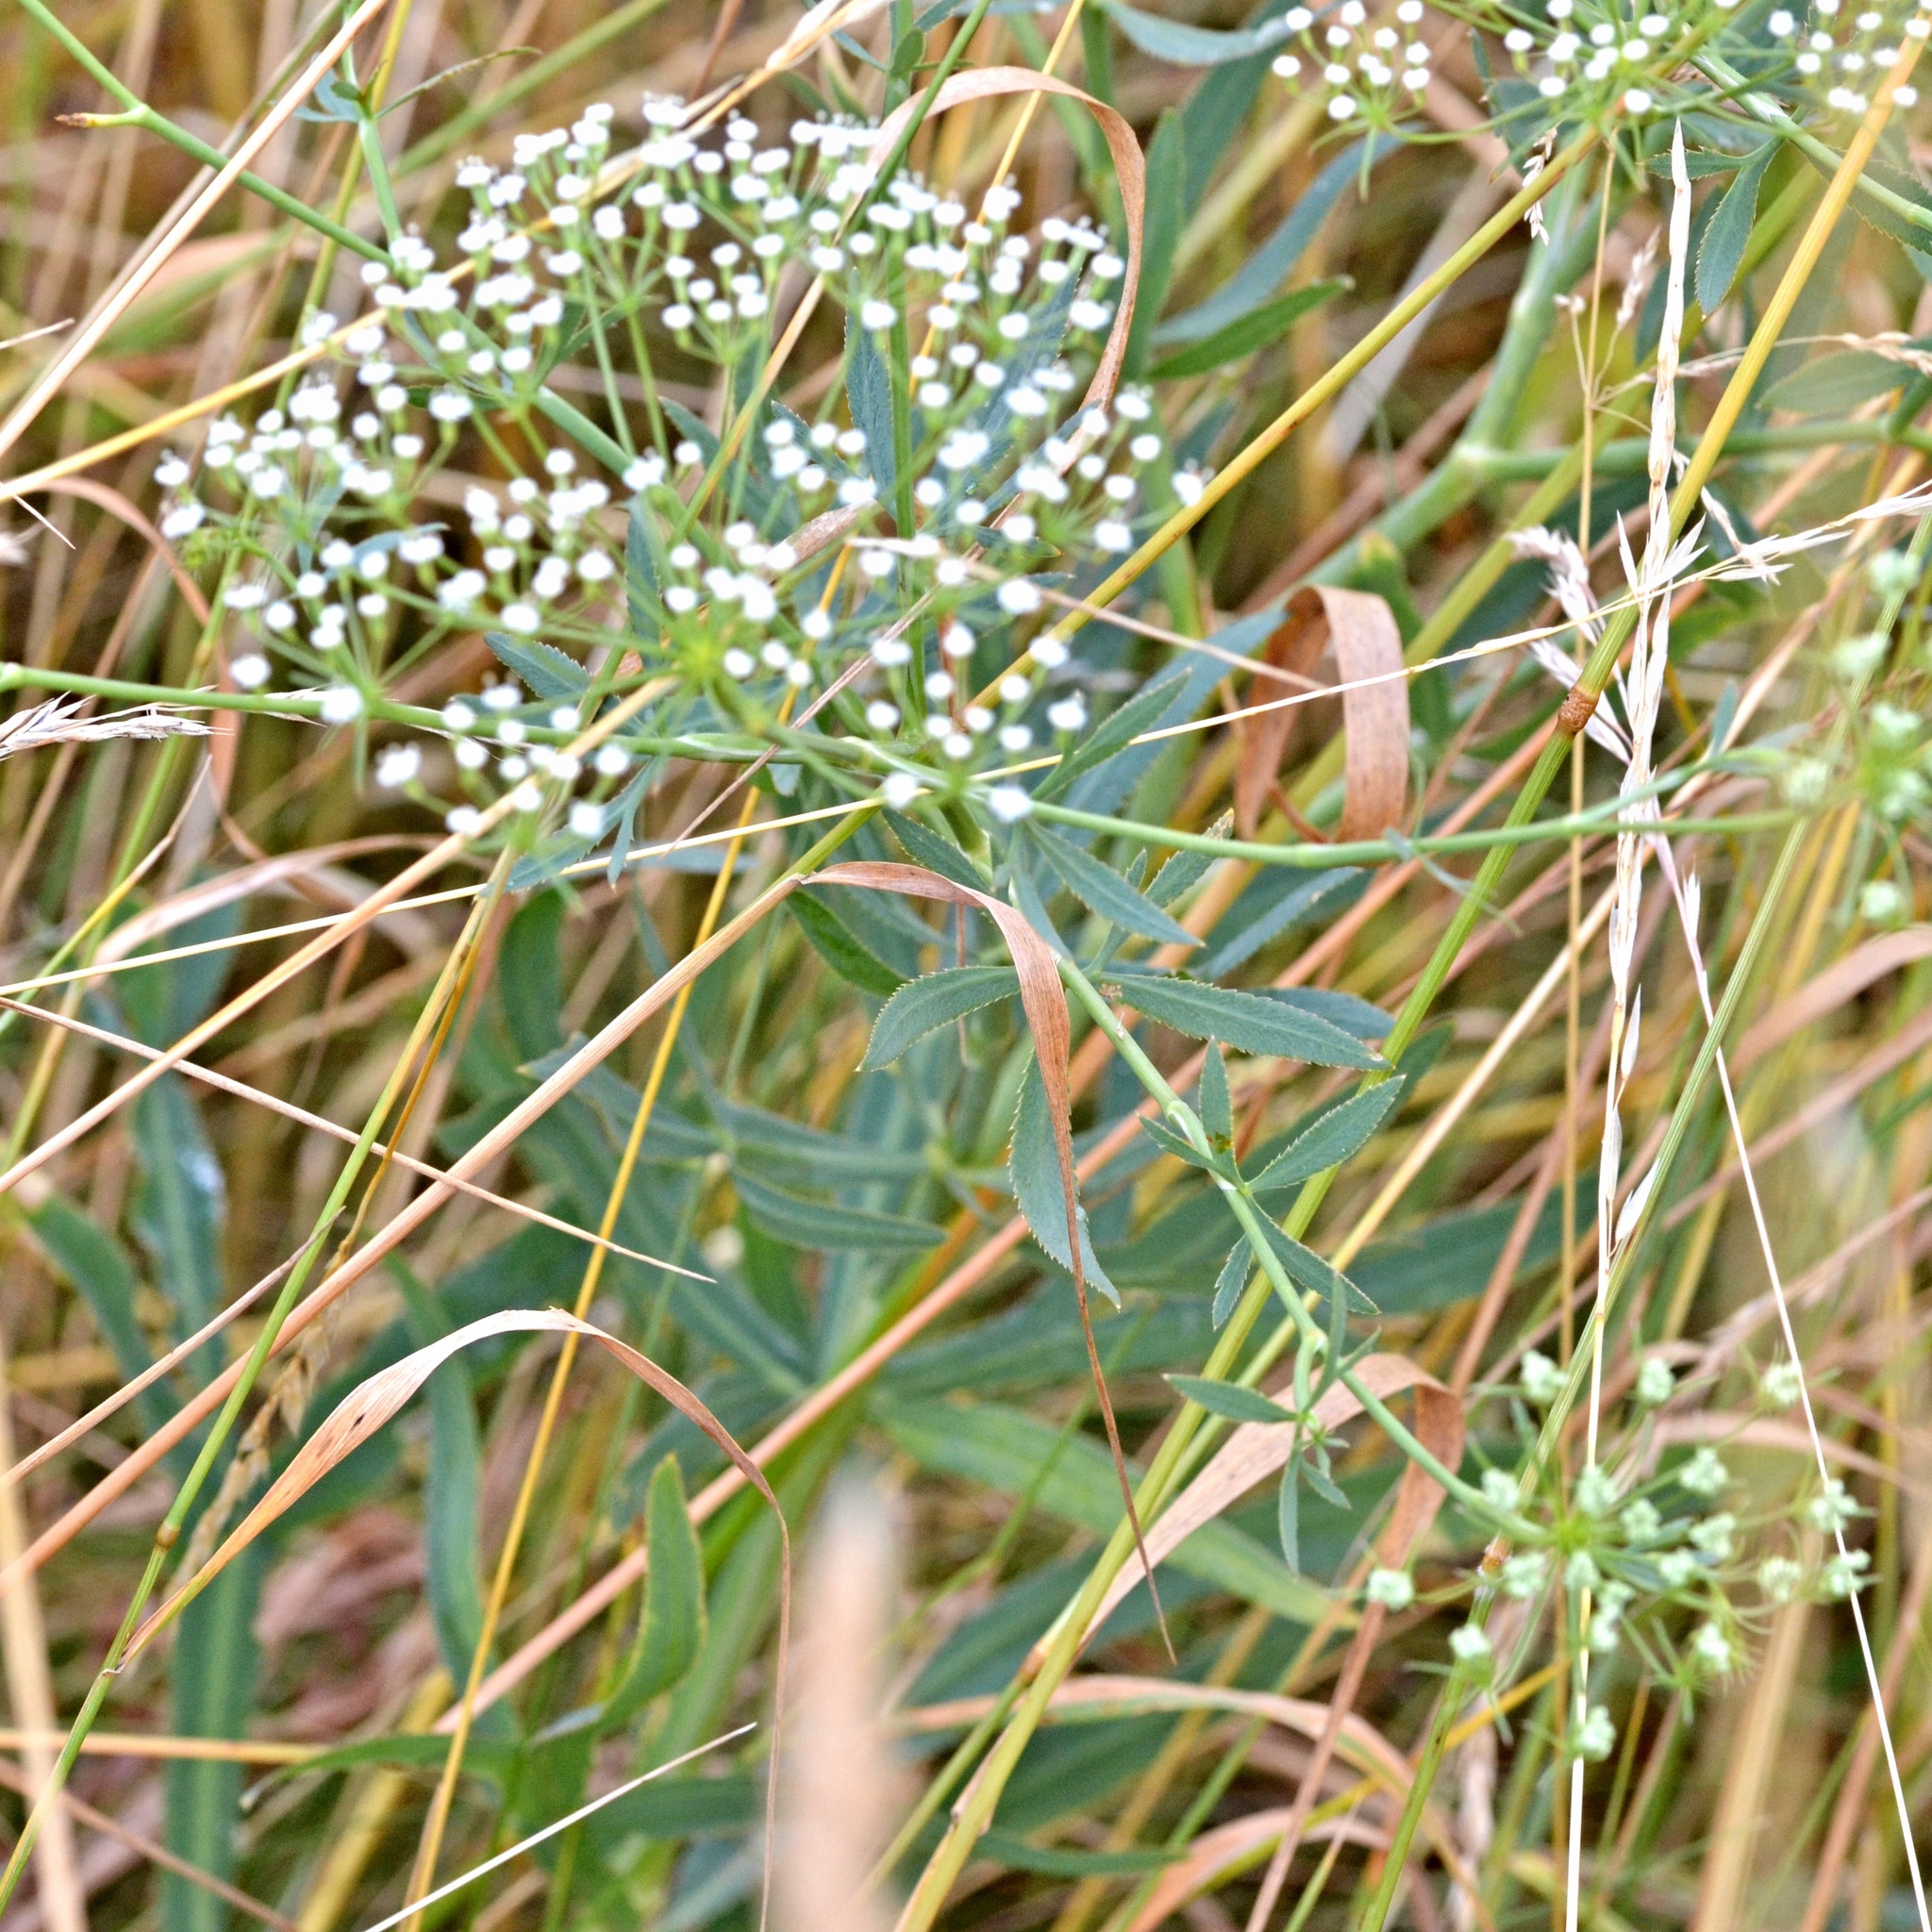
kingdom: Plantae
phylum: Tracheophyta
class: Magnoliopsida
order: Apiales
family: Apiaceae
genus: Falcaria
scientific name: Falcaria vulgaris
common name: Longleaf
